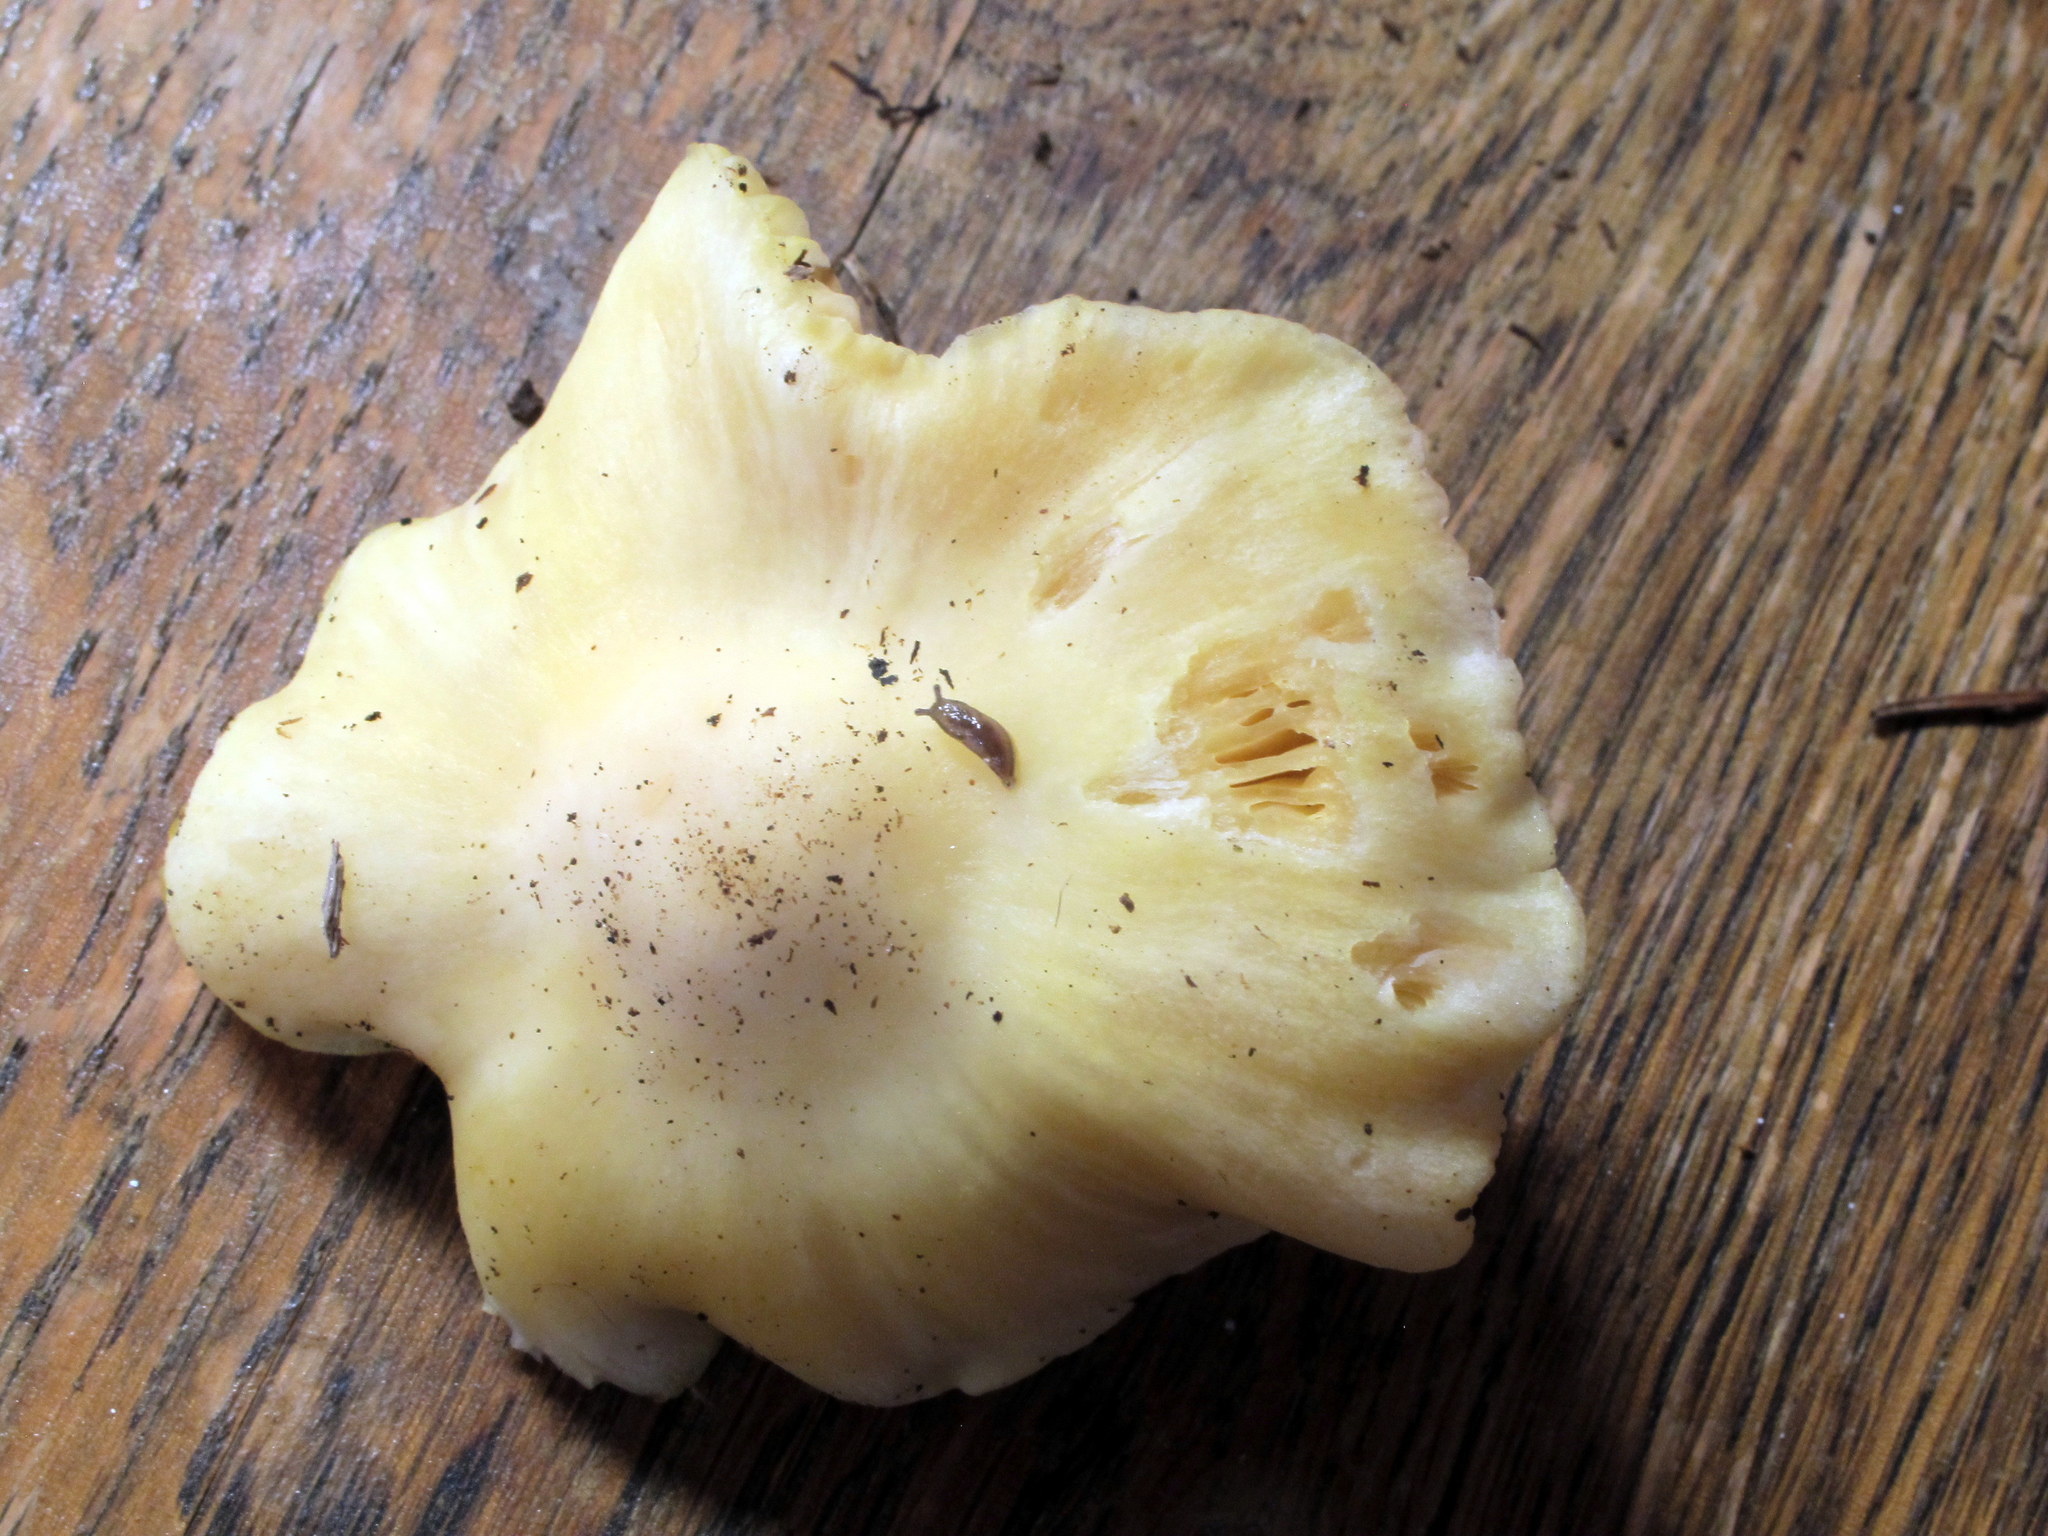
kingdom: Fungi
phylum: Basidiomycota
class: Agaricomycetes
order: Agaricales
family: Entolomataceae
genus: Entoloma
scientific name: Entoloma luridum
